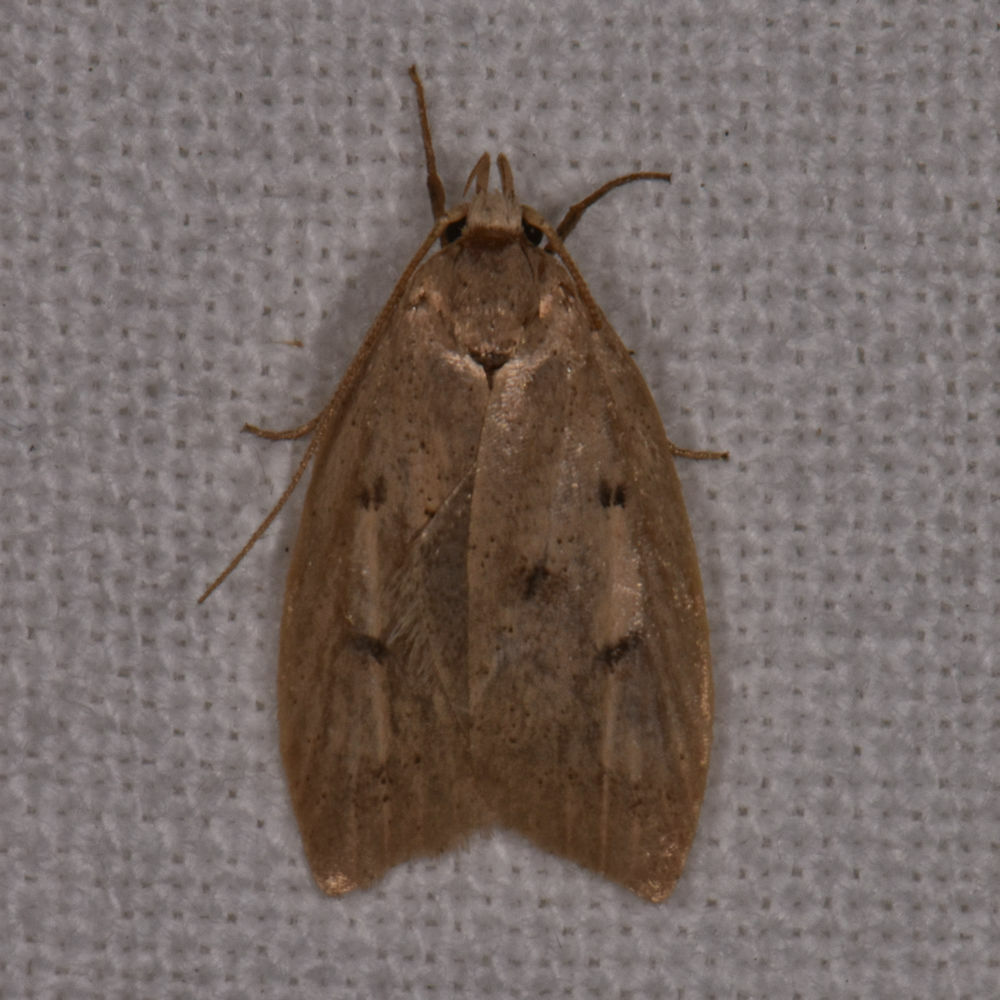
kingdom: Animalia
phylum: Arthropoda
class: Insecta
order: Lepidoptera
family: Peleopodidae
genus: Machimia
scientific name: Machimia tentoriferella
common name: Gold-striped leaftier moth
